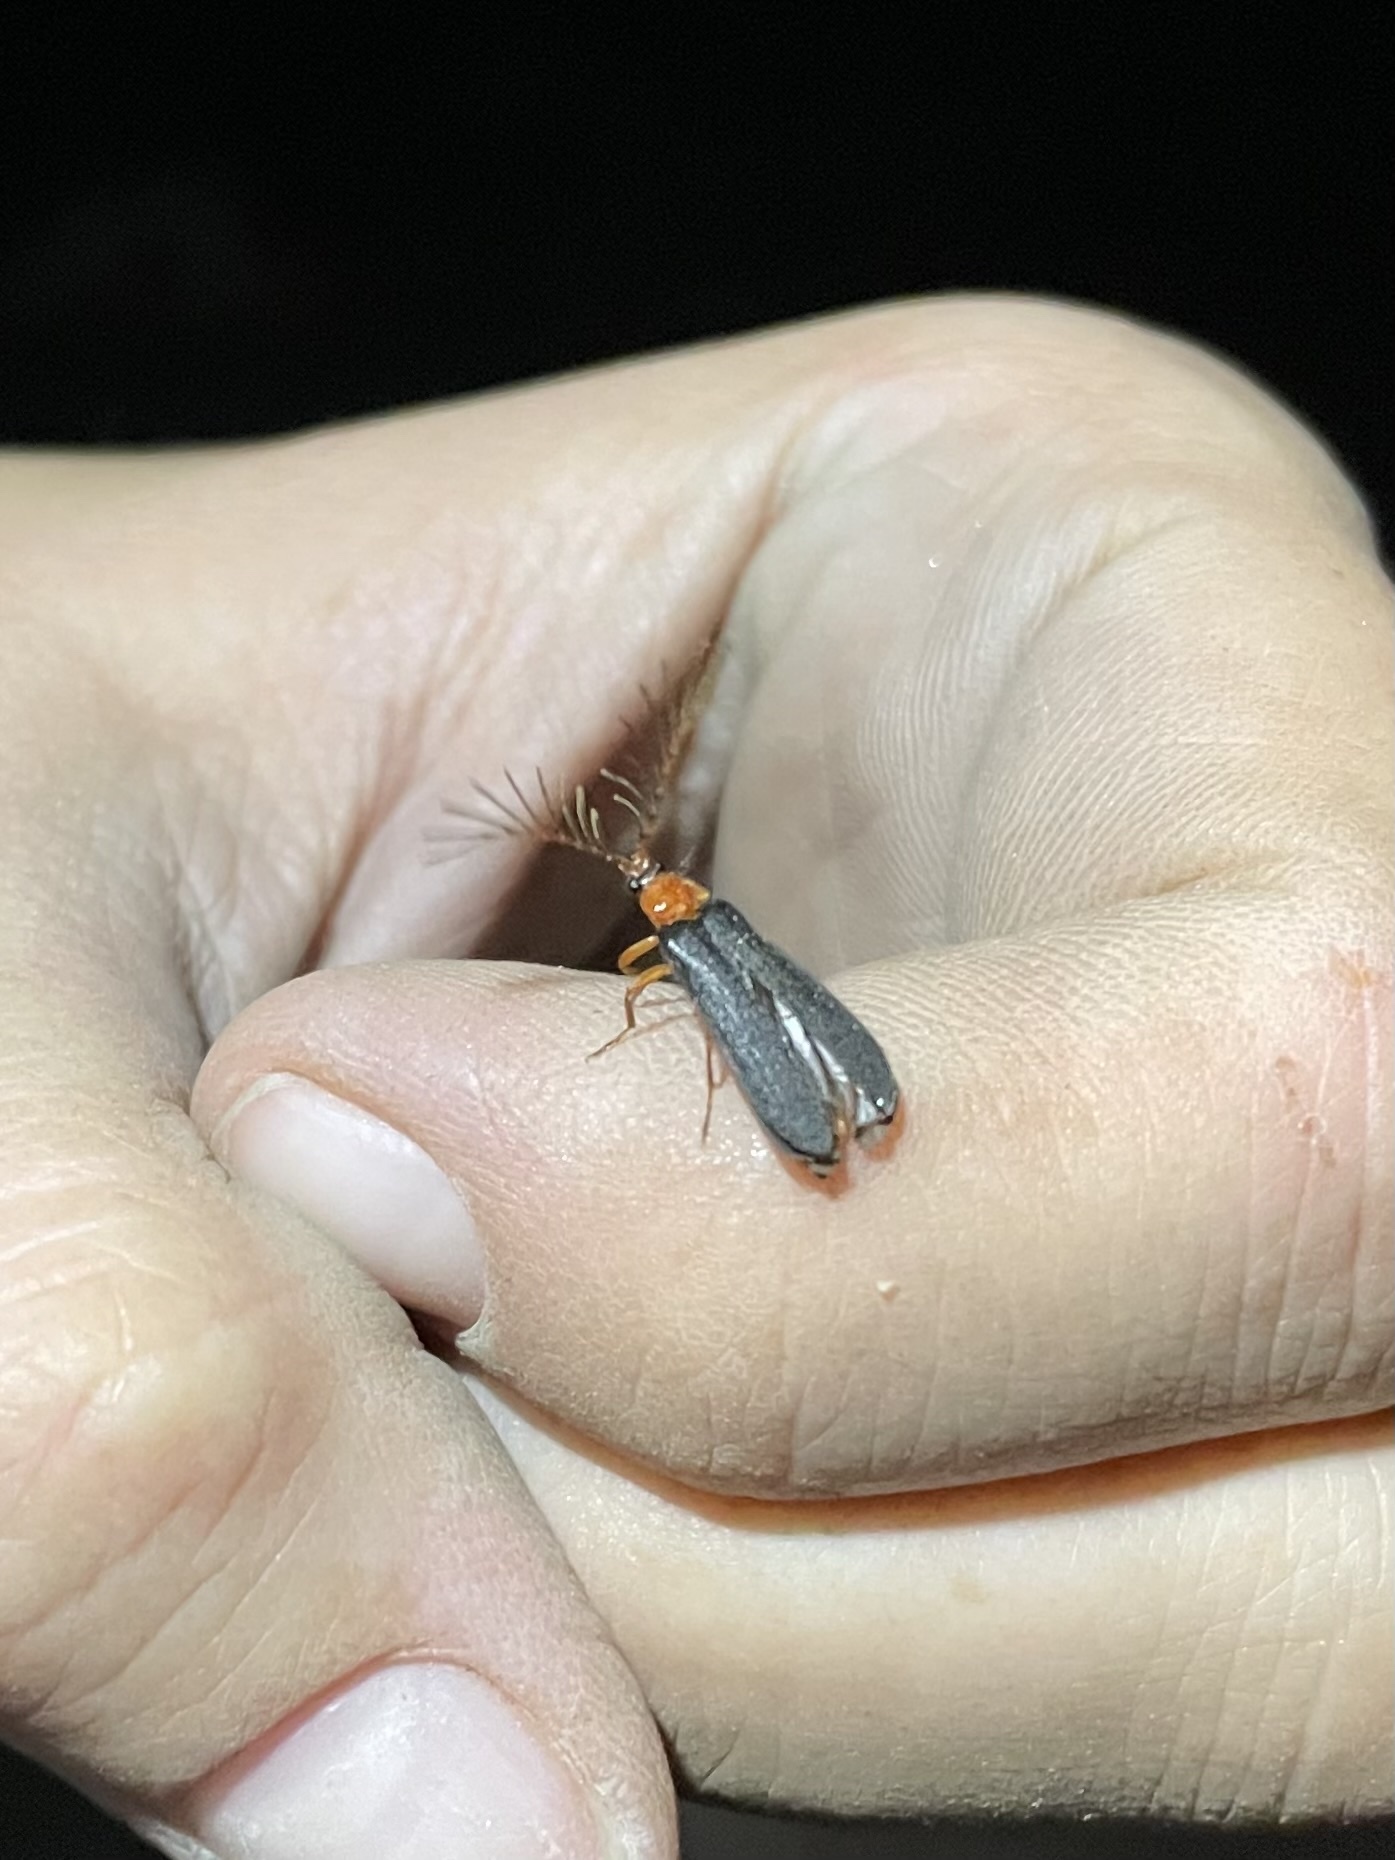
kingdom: Animalia
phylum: Arthropoda
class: Insecta
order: Coleoptera
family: Lampyridae
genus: Pterotus
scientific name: Pterotus obscuripennis
